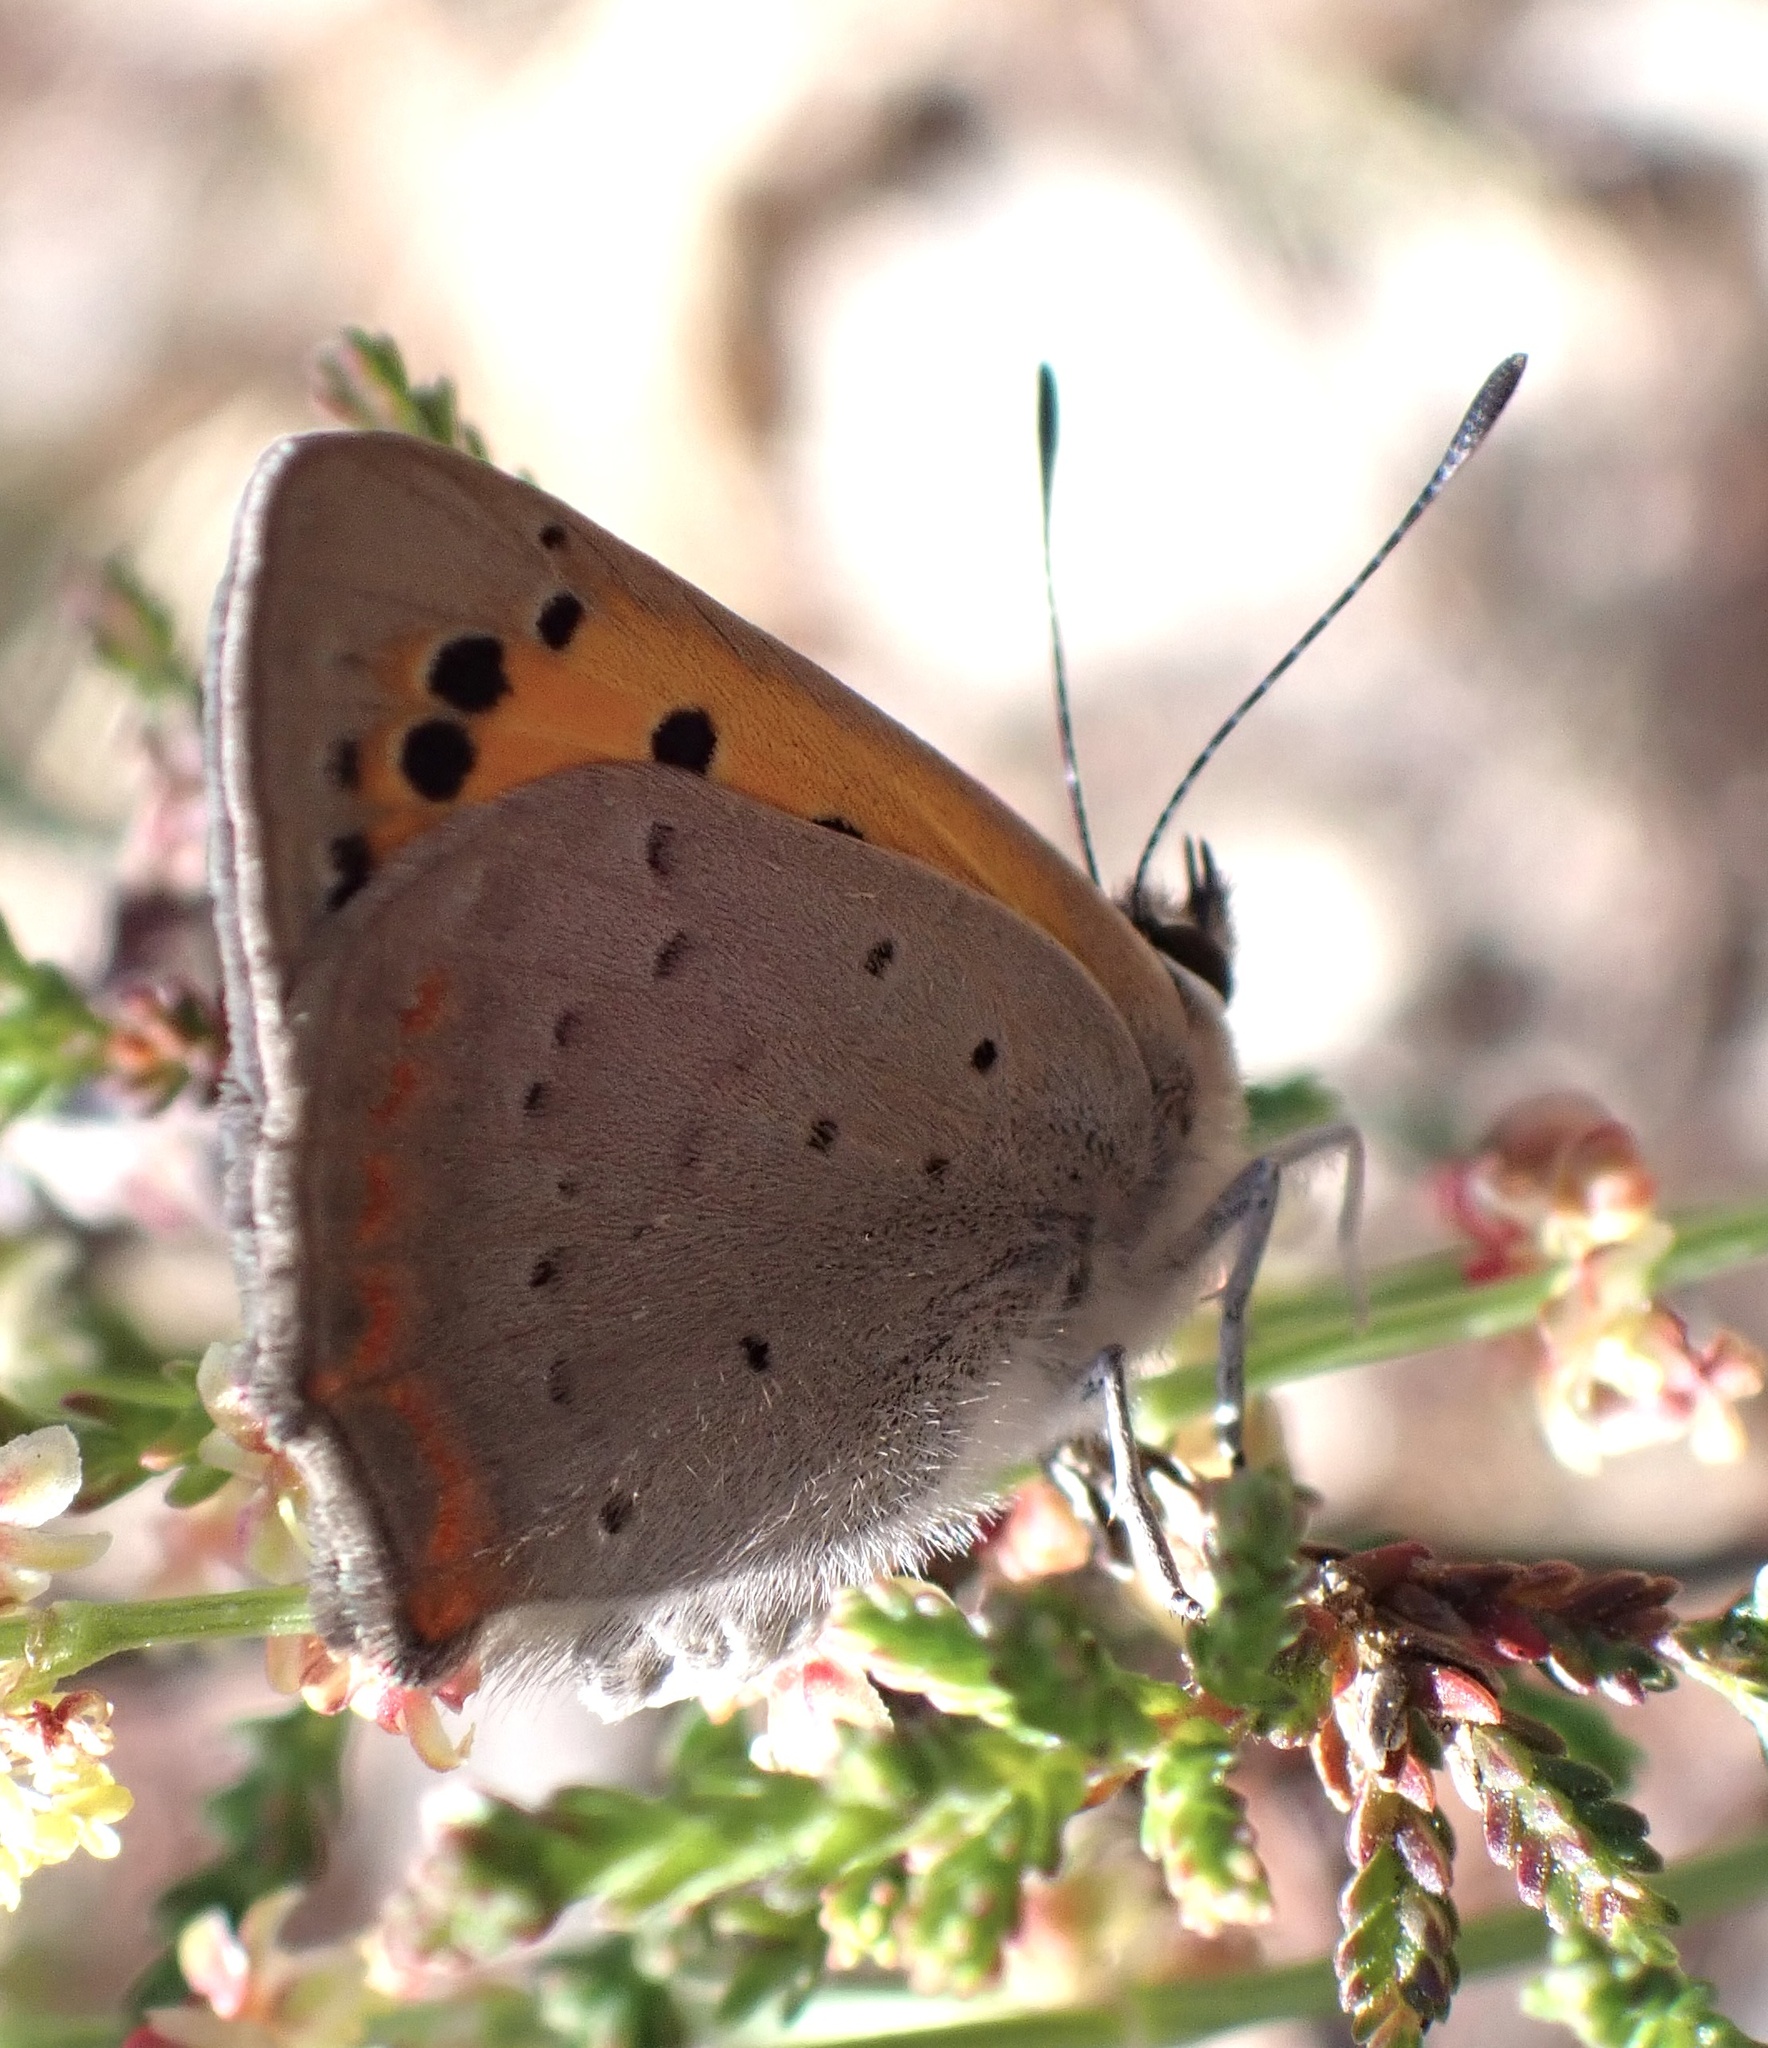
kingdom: Animalia
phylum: Arthropoda
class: Insecta
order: Lepidoptera
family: Lycaenidae
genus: Lycaena
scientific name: Lycaena phlaeas
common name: Small copper
